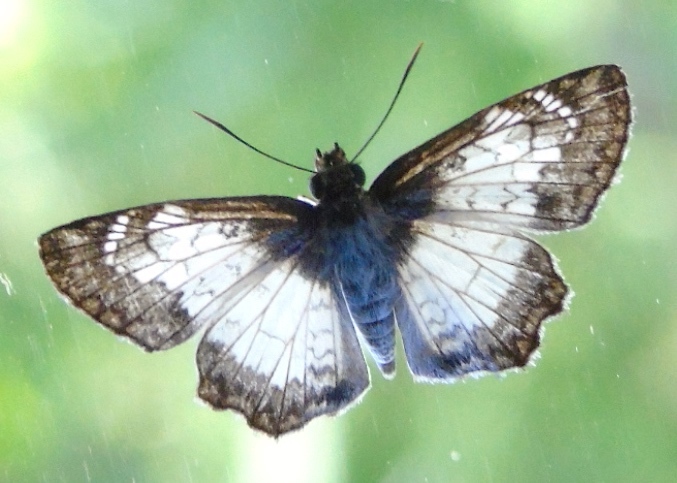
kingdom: Animalia
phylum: Arthropoda
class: Insecta
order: Lepidoptera
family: Hesperiidae
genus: Antigonus
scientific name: Antigonus emorsa
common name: White spurwing
